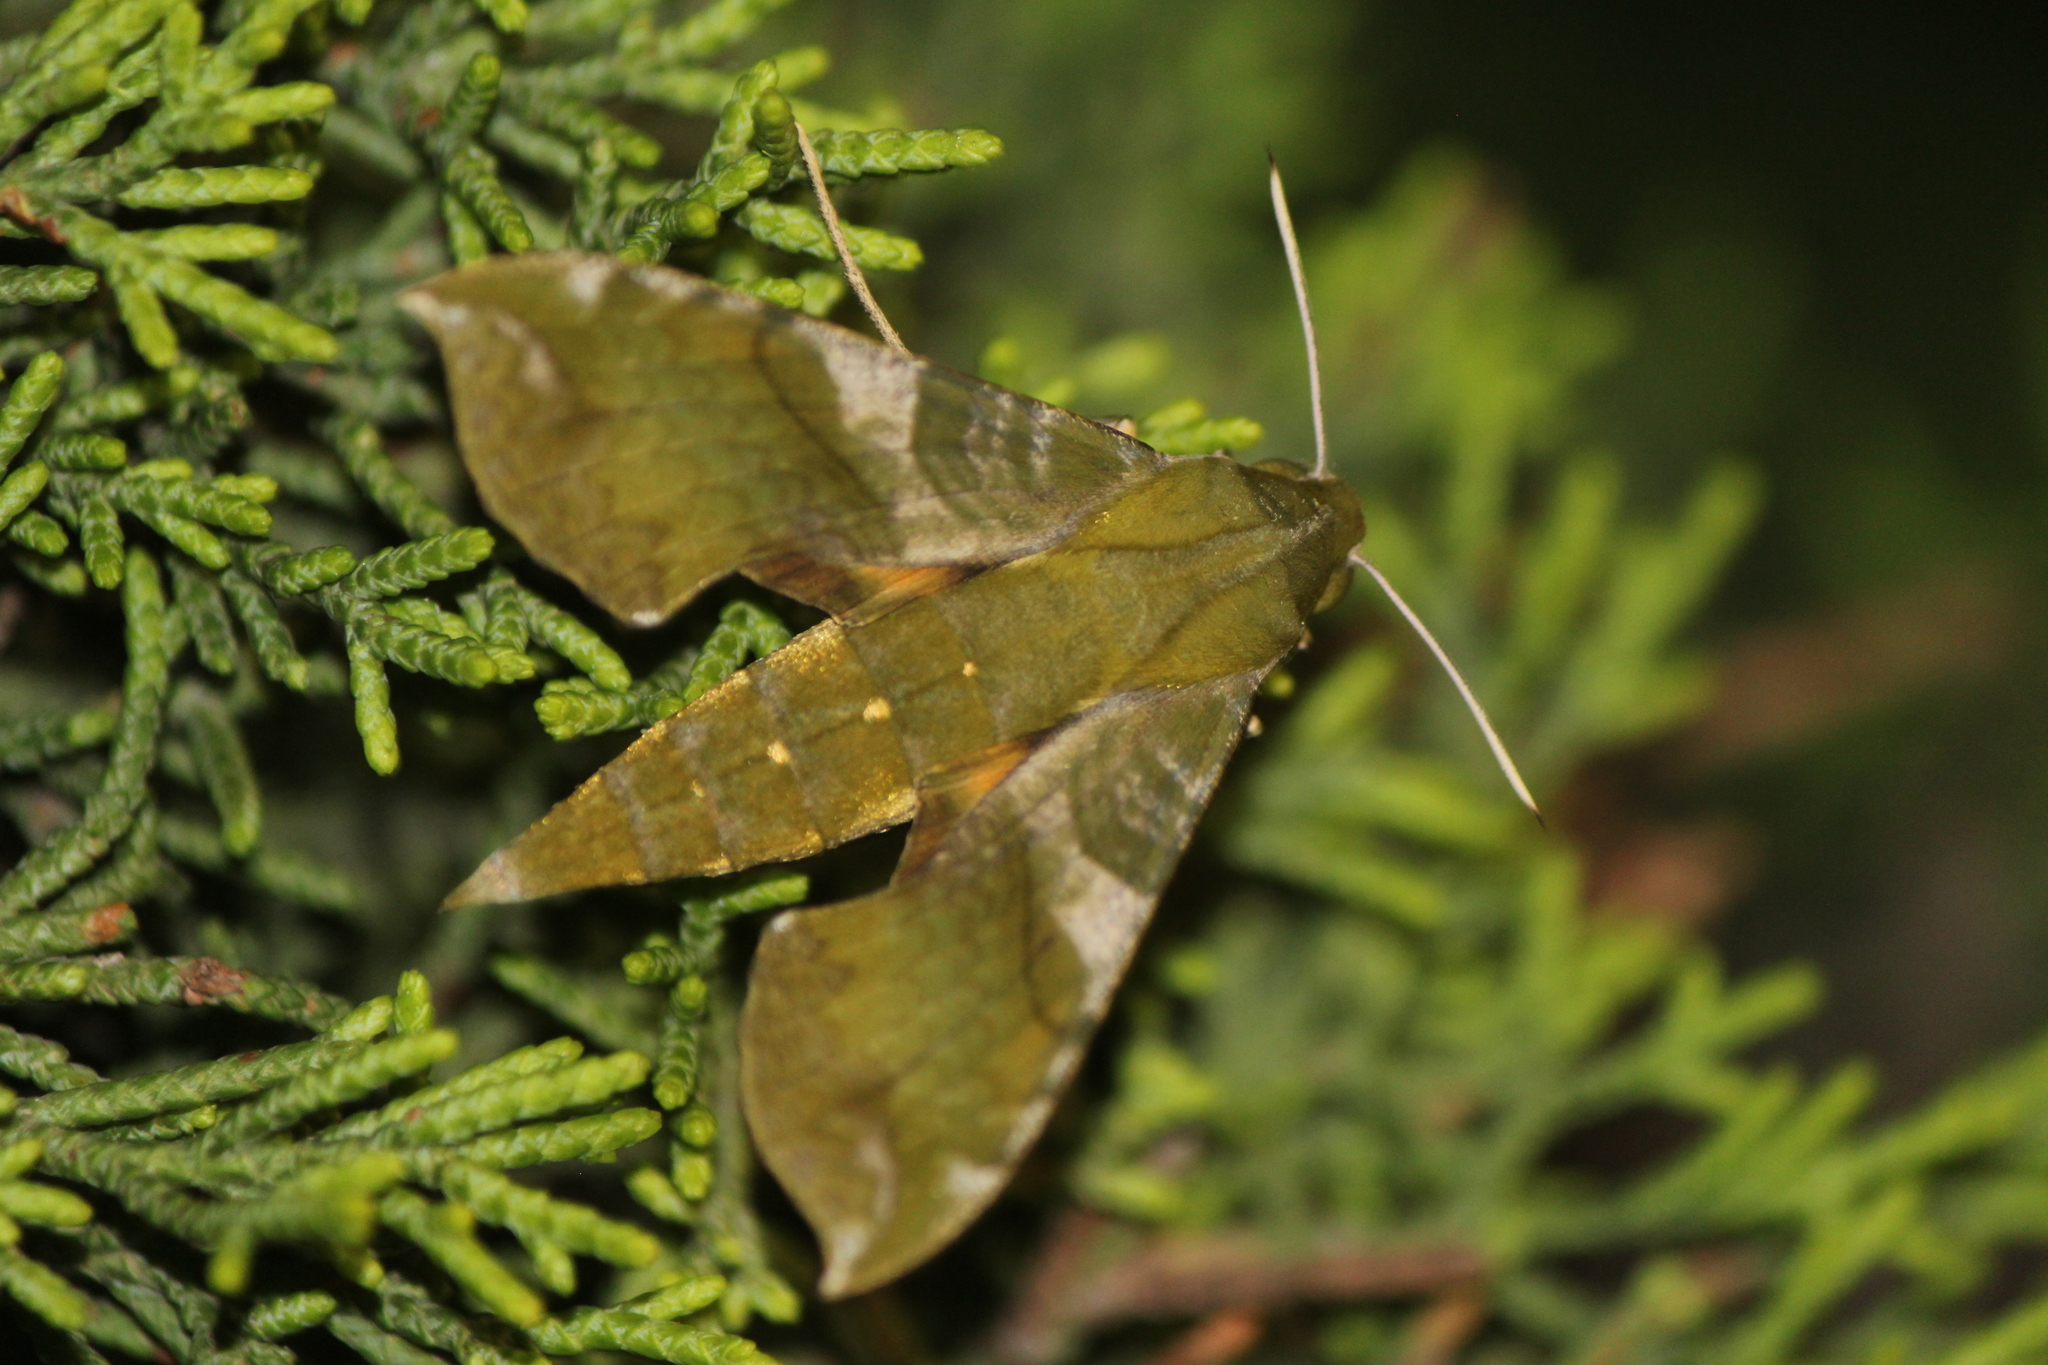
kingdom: Animalia
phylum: Arthropoda
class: Insecta
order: Lepidoptera
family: Sphingidae
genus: Xylophanes
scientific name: Xylophanes pluto
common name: Pluto sphinx
